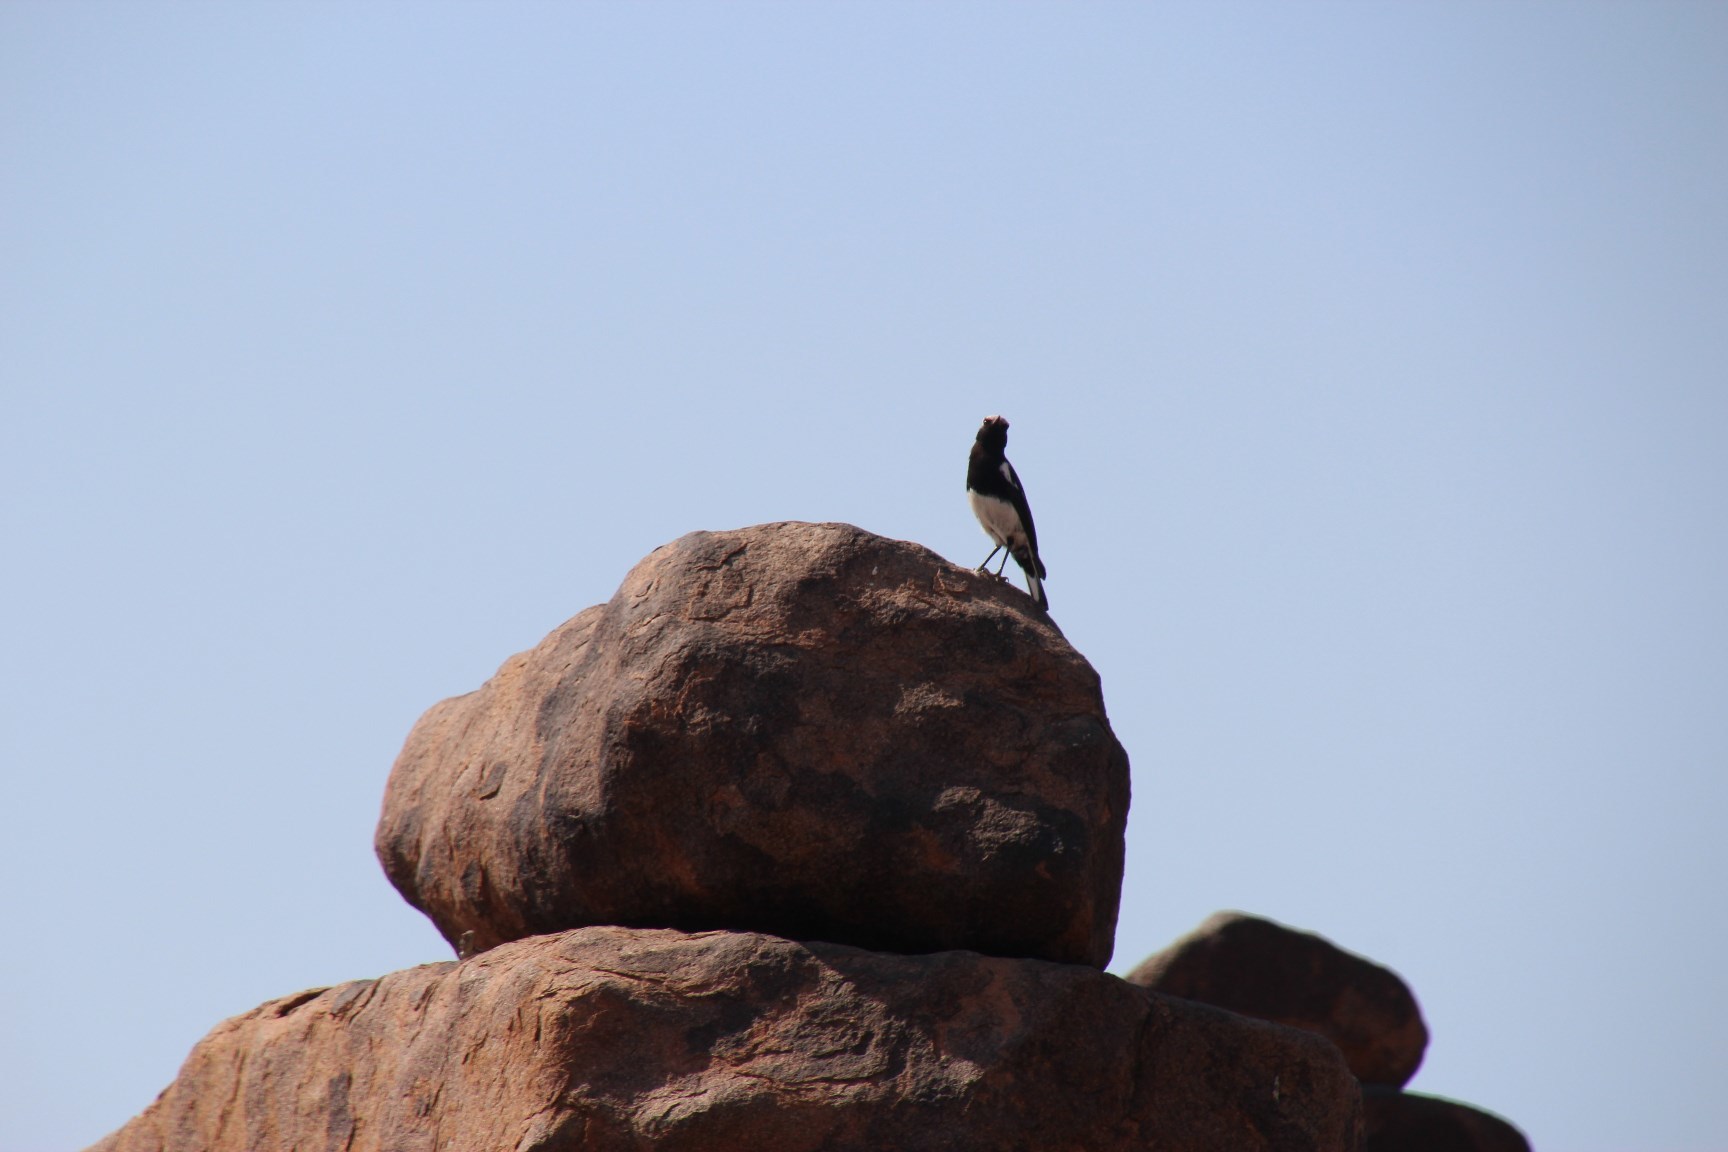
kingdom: Animalia
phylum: Chordata
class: Aves
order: Passeriformes
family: Muscicapidae
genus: Oenanthe
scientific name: Oenanthe monticola
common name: Mountain wheatear
